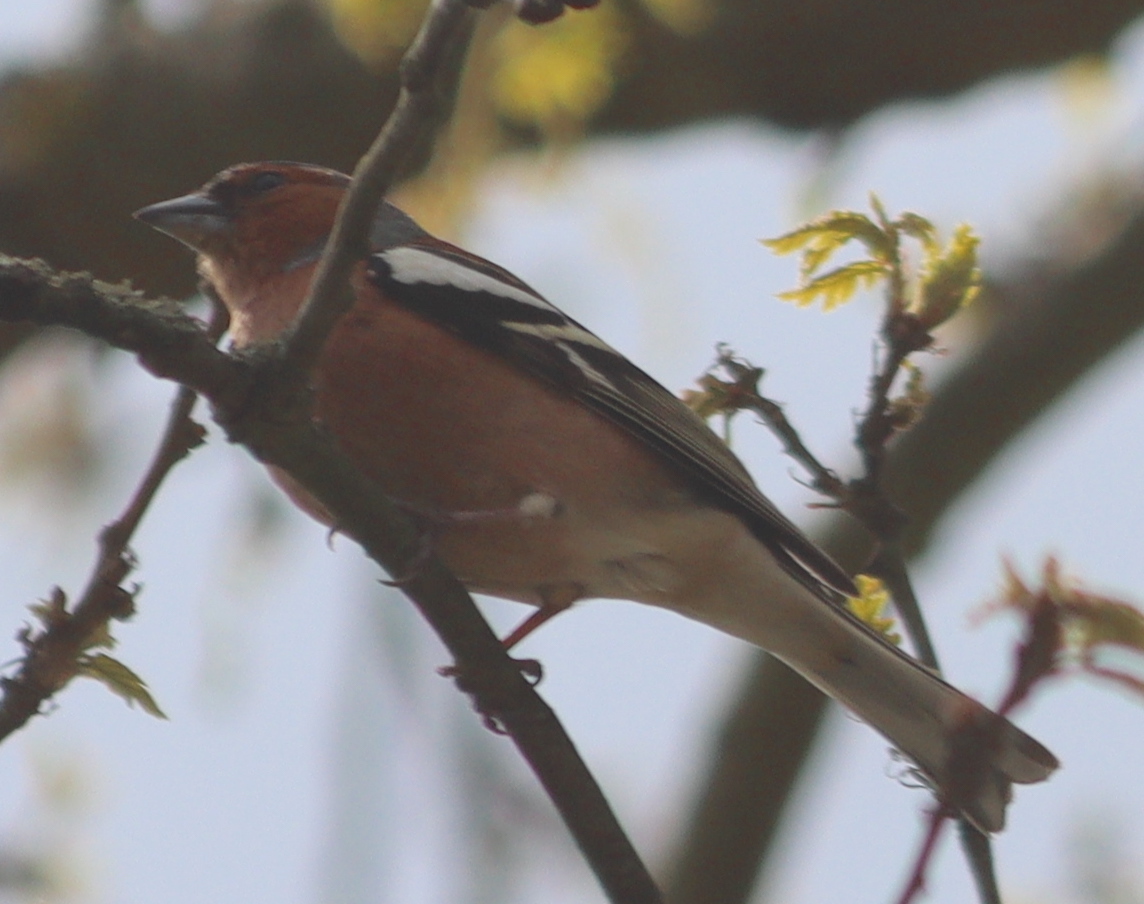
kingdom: Animalia
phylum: Chordata
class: Aves
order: Passeriformes
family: Fringillidae
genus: Fringilla
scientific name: Fringilla coelebs
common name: Common chaffinch
